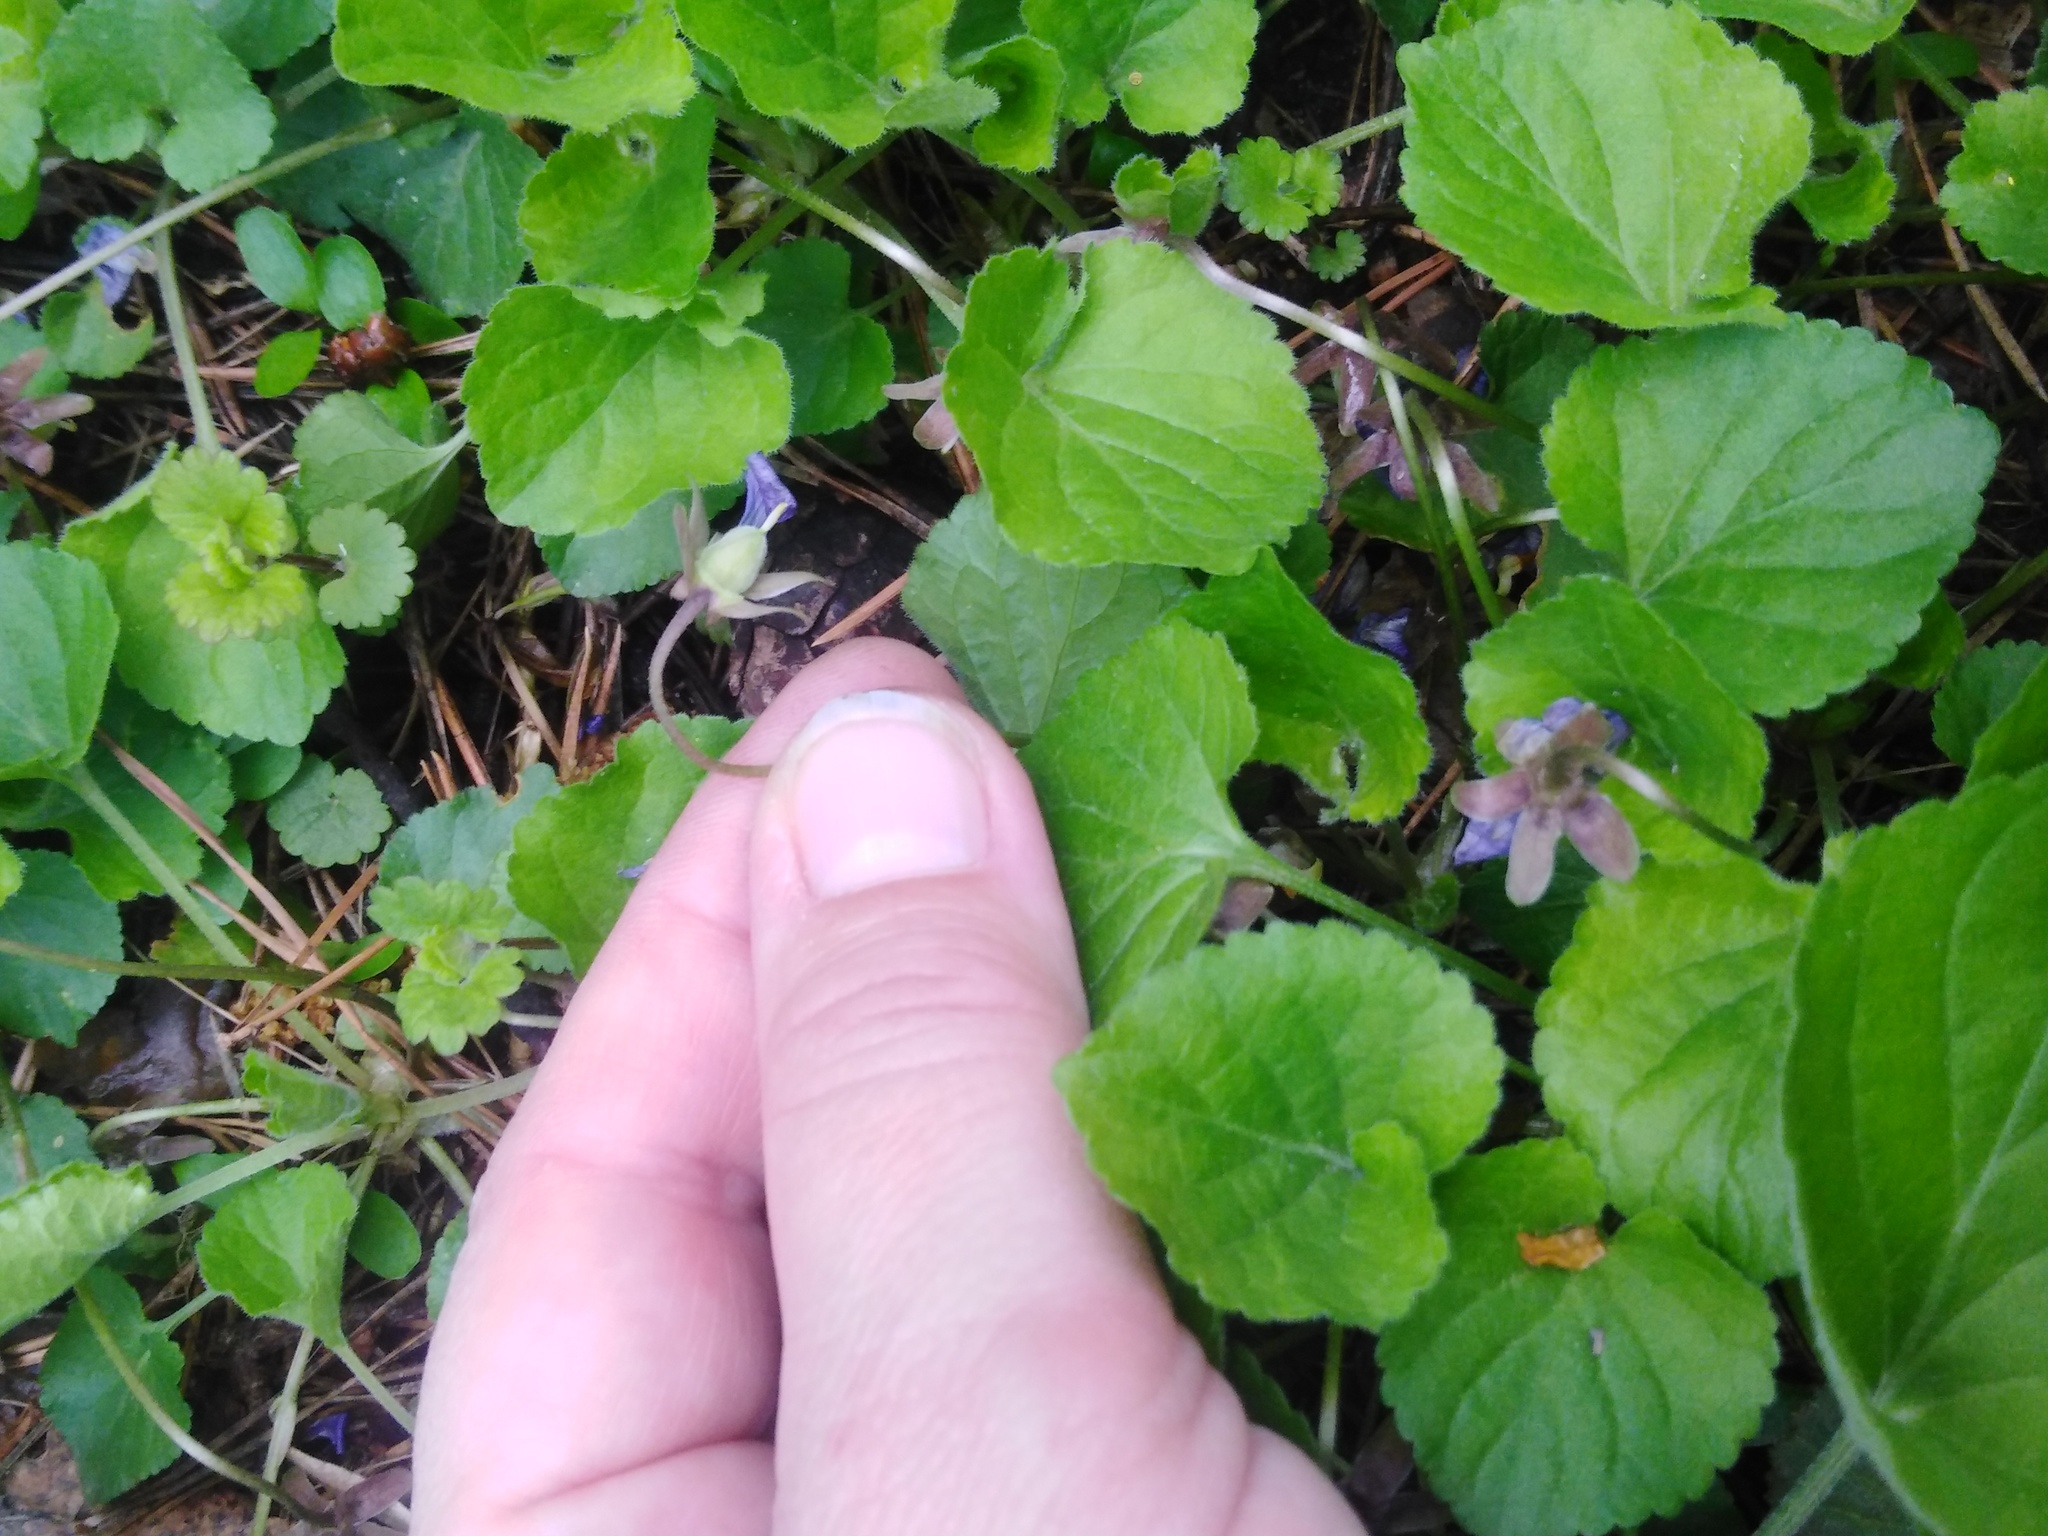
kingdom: Plantae
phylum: Tracheophyta
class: Magnoliopsida
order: Malpighiales
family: Violaceae
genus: Viola
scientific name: Viola odorata
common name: Sweet violet
